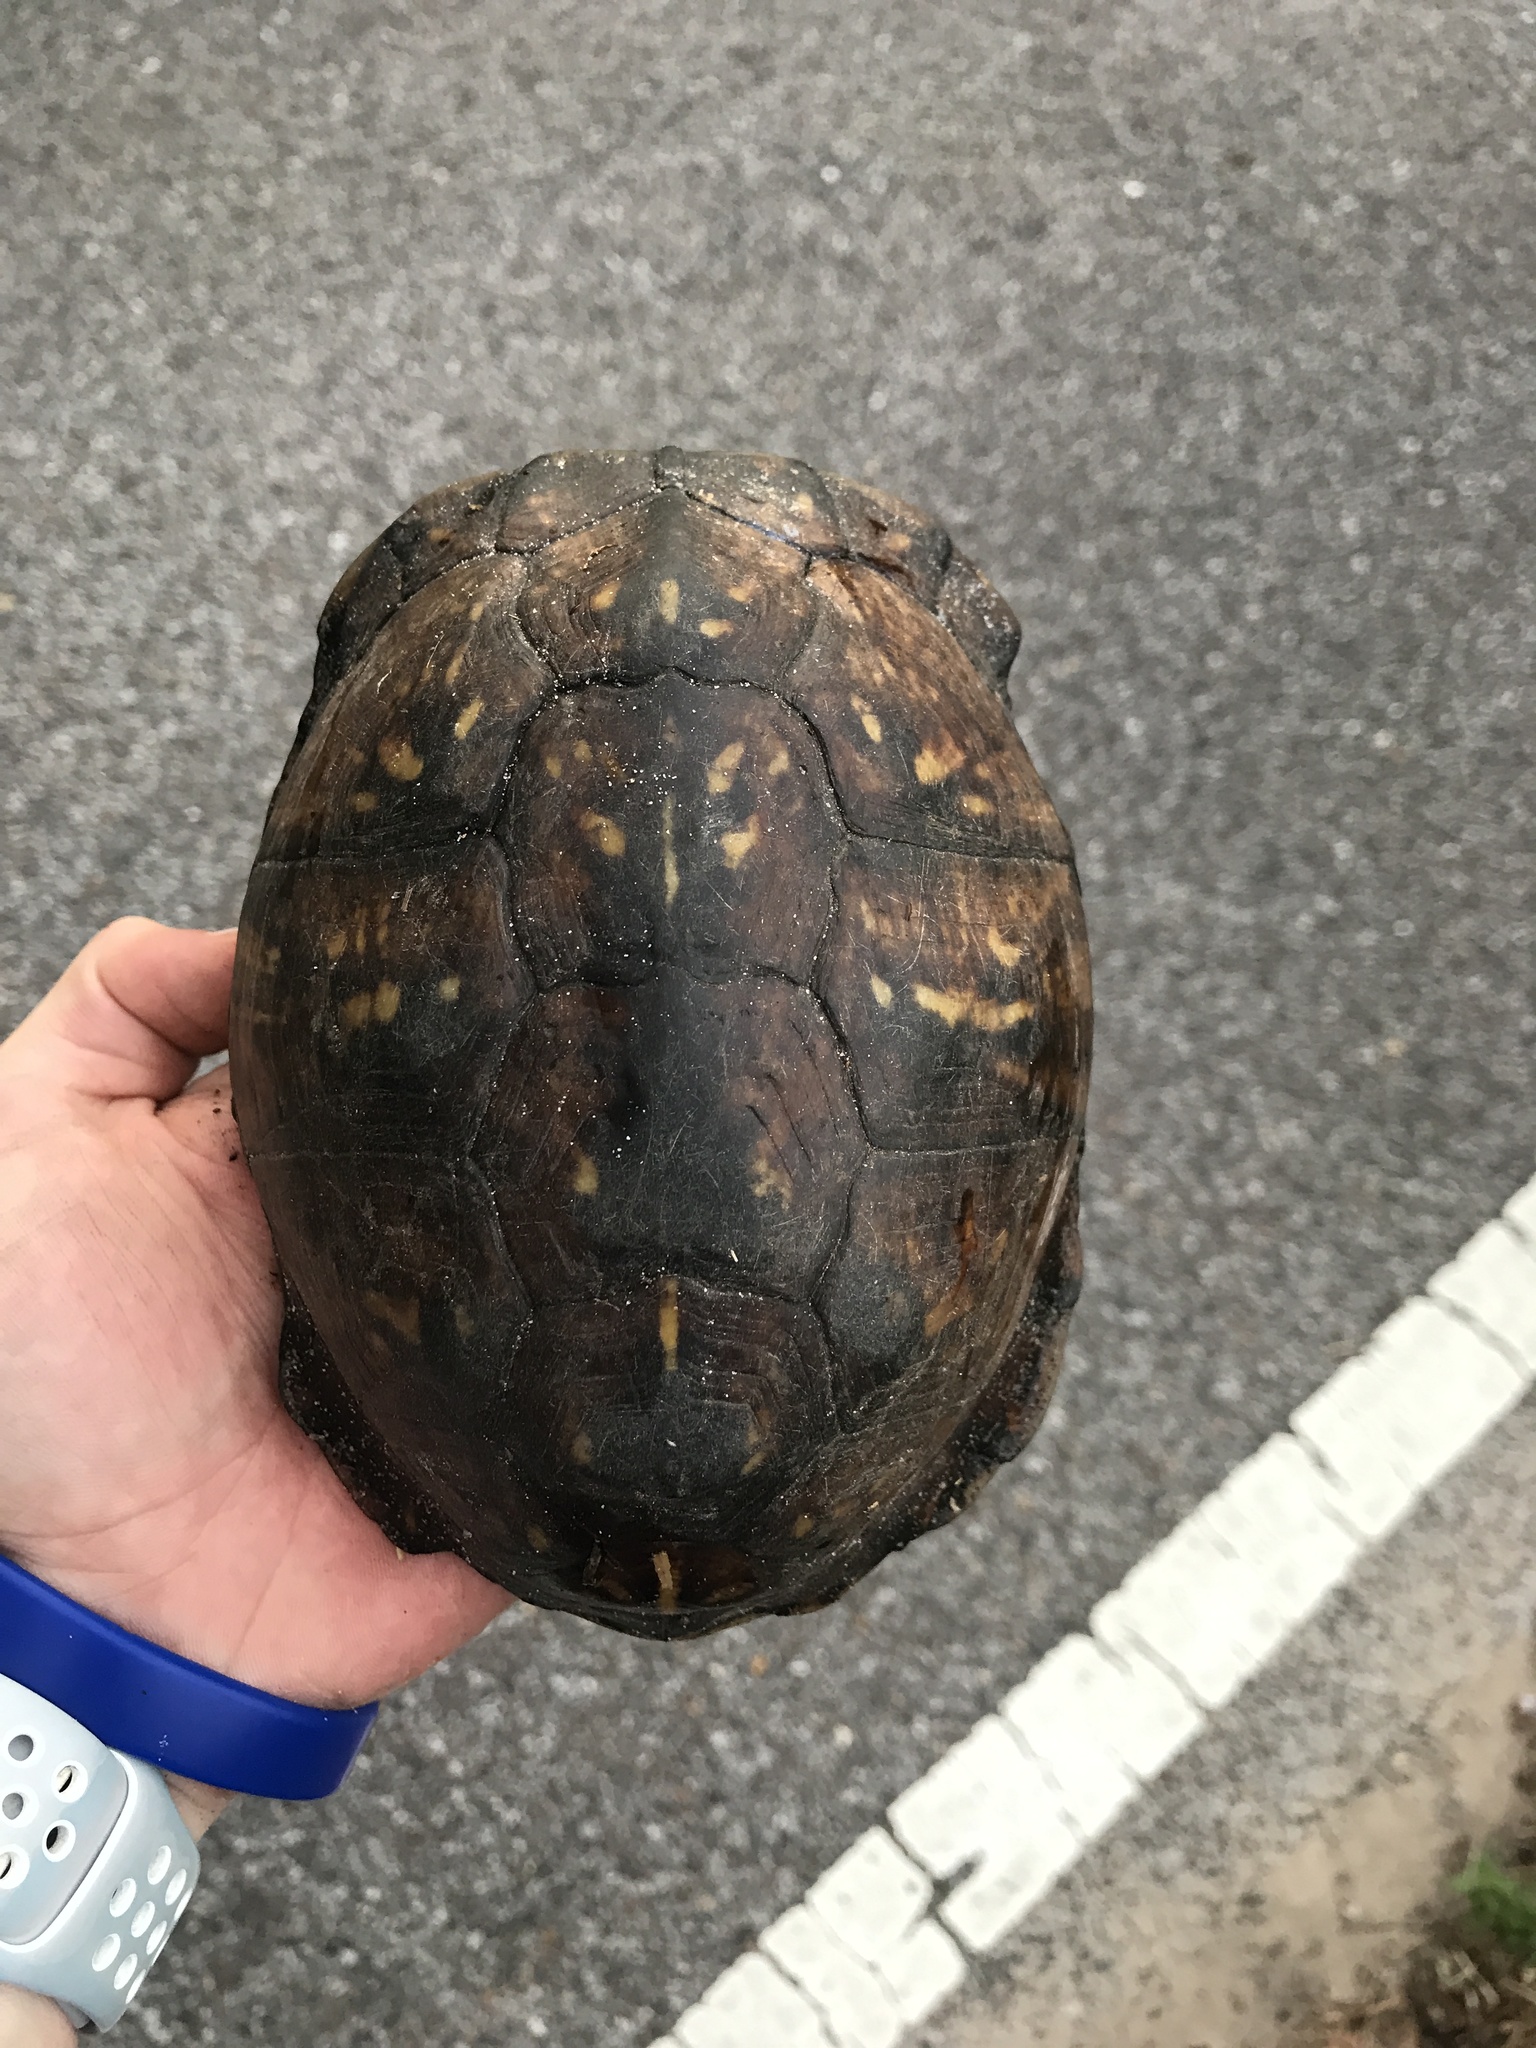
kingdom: Animalia
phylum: Chordata
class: Testudines
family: Emydidae
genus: Terrapene
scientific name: Terrapene carolina
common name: Common box turtle
